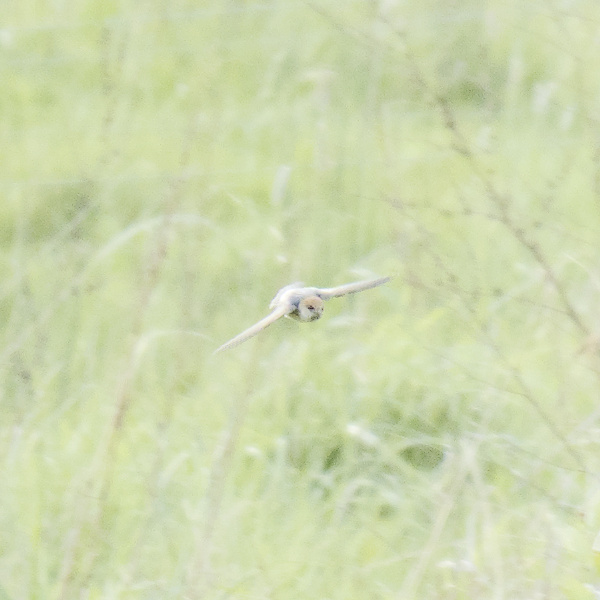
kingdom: Animalia
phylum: Chordata
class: Aves
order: Passeriformes
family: Hirundinidae
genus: Petrochelidon
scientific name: Petrochelidon ariel
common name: Fairy martin
